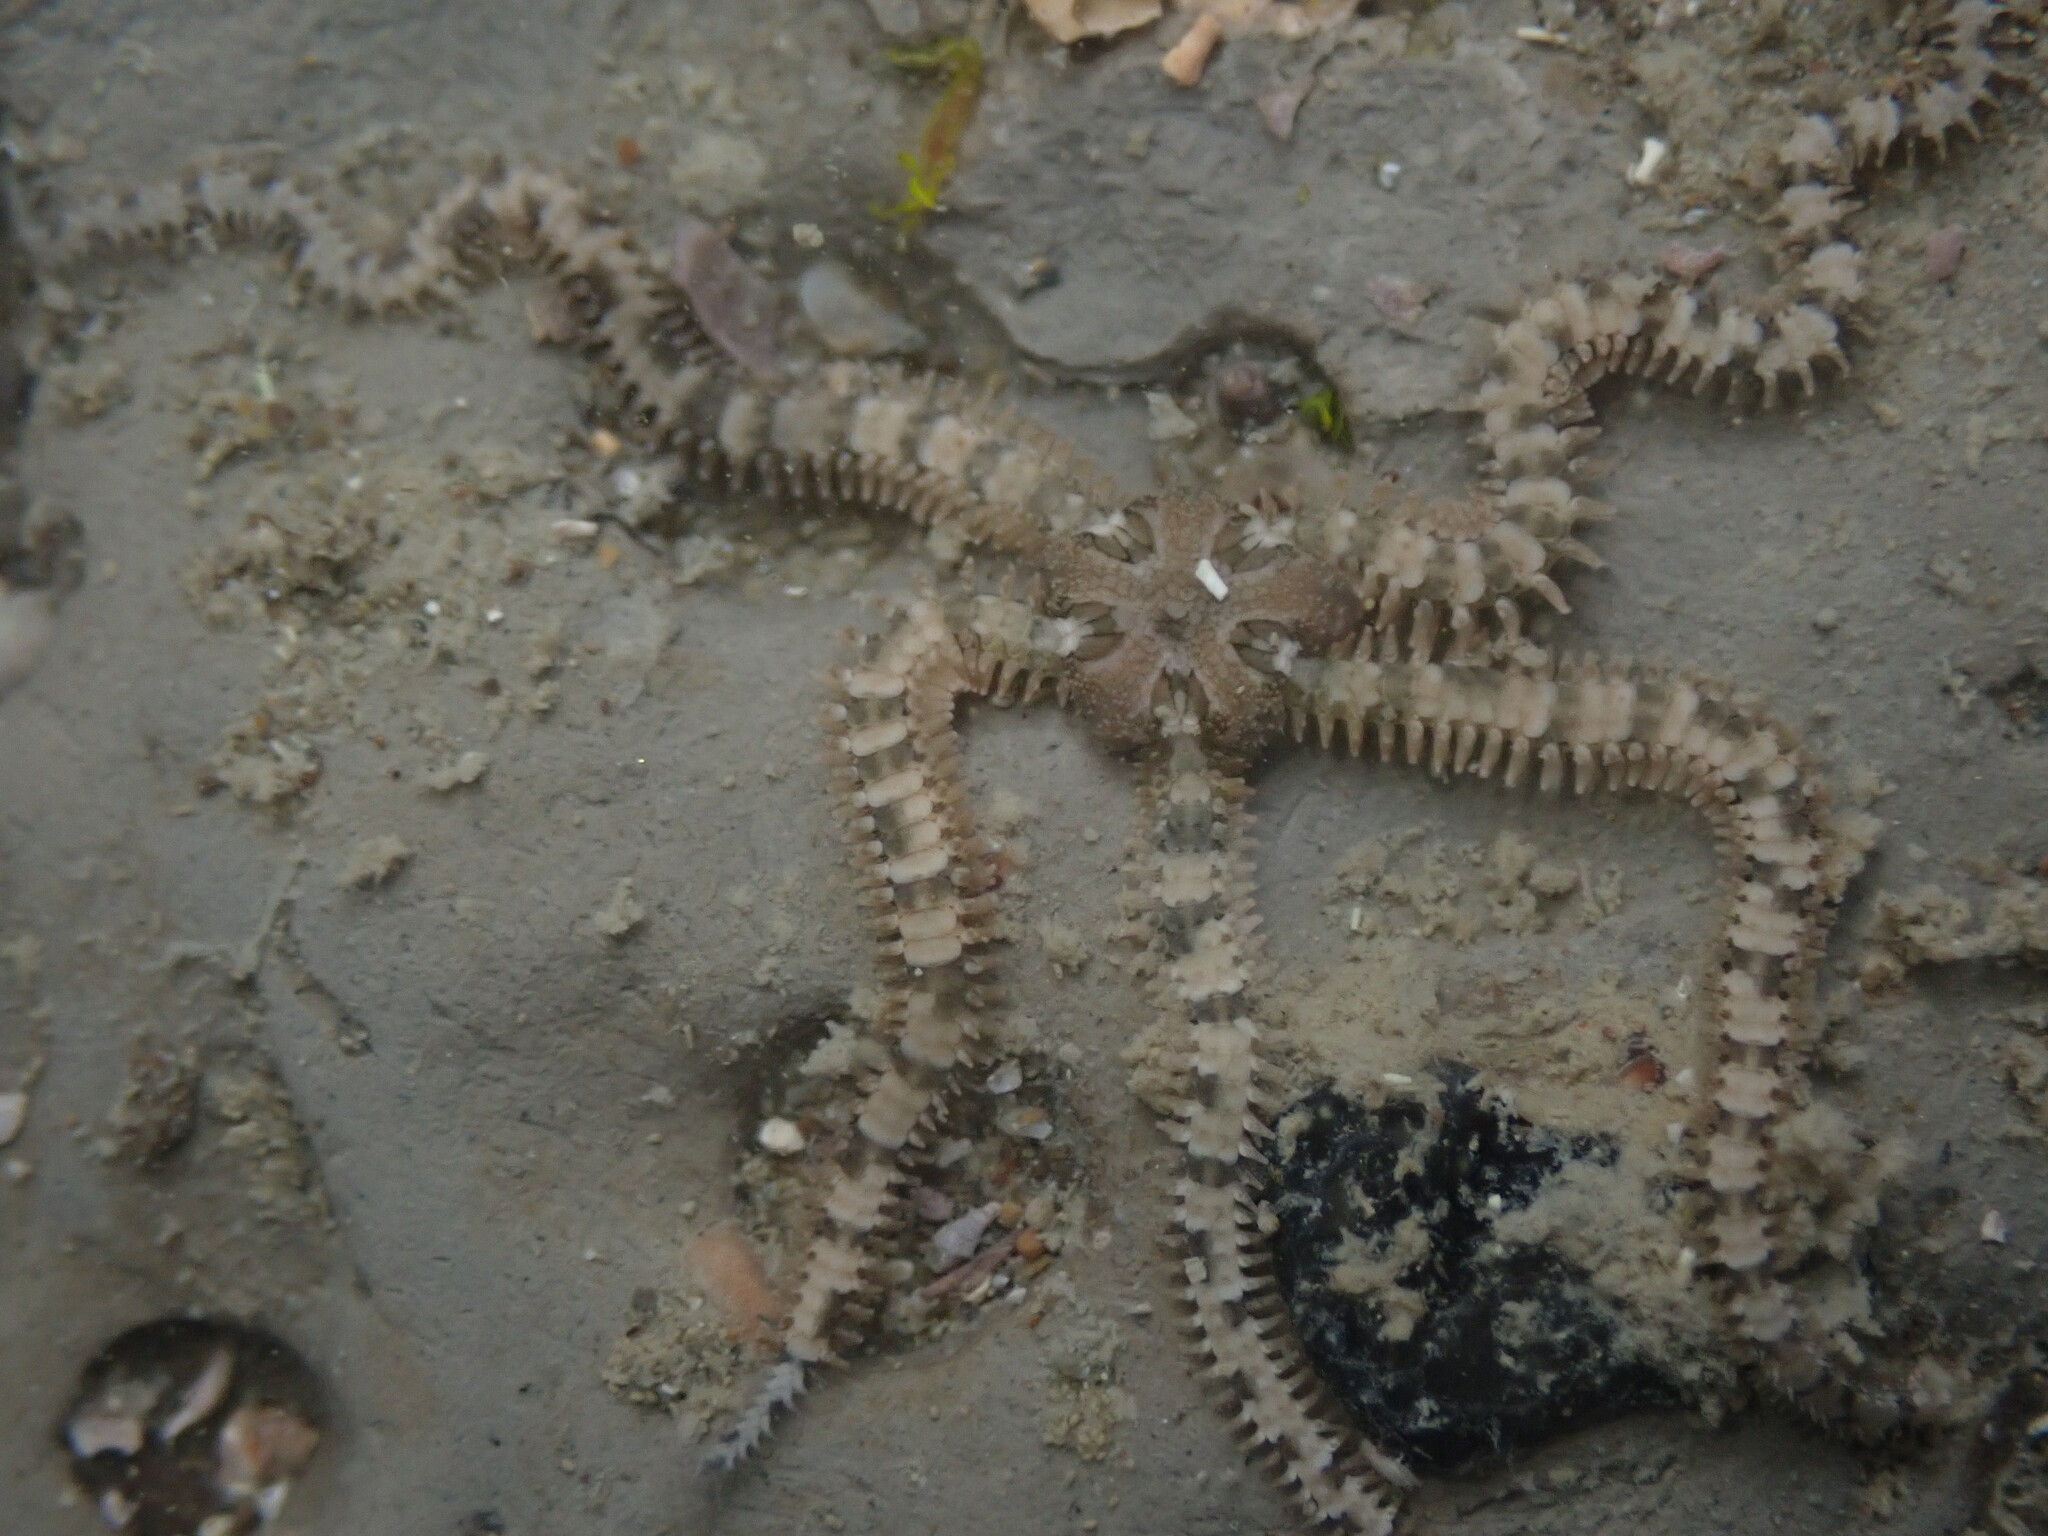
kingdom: Animalia
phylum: Echinodermata
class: Ophiuroidea
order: Amphilepidida
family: Ophiactidae
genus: Ophiactis
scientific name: Ophiactis resiliens
